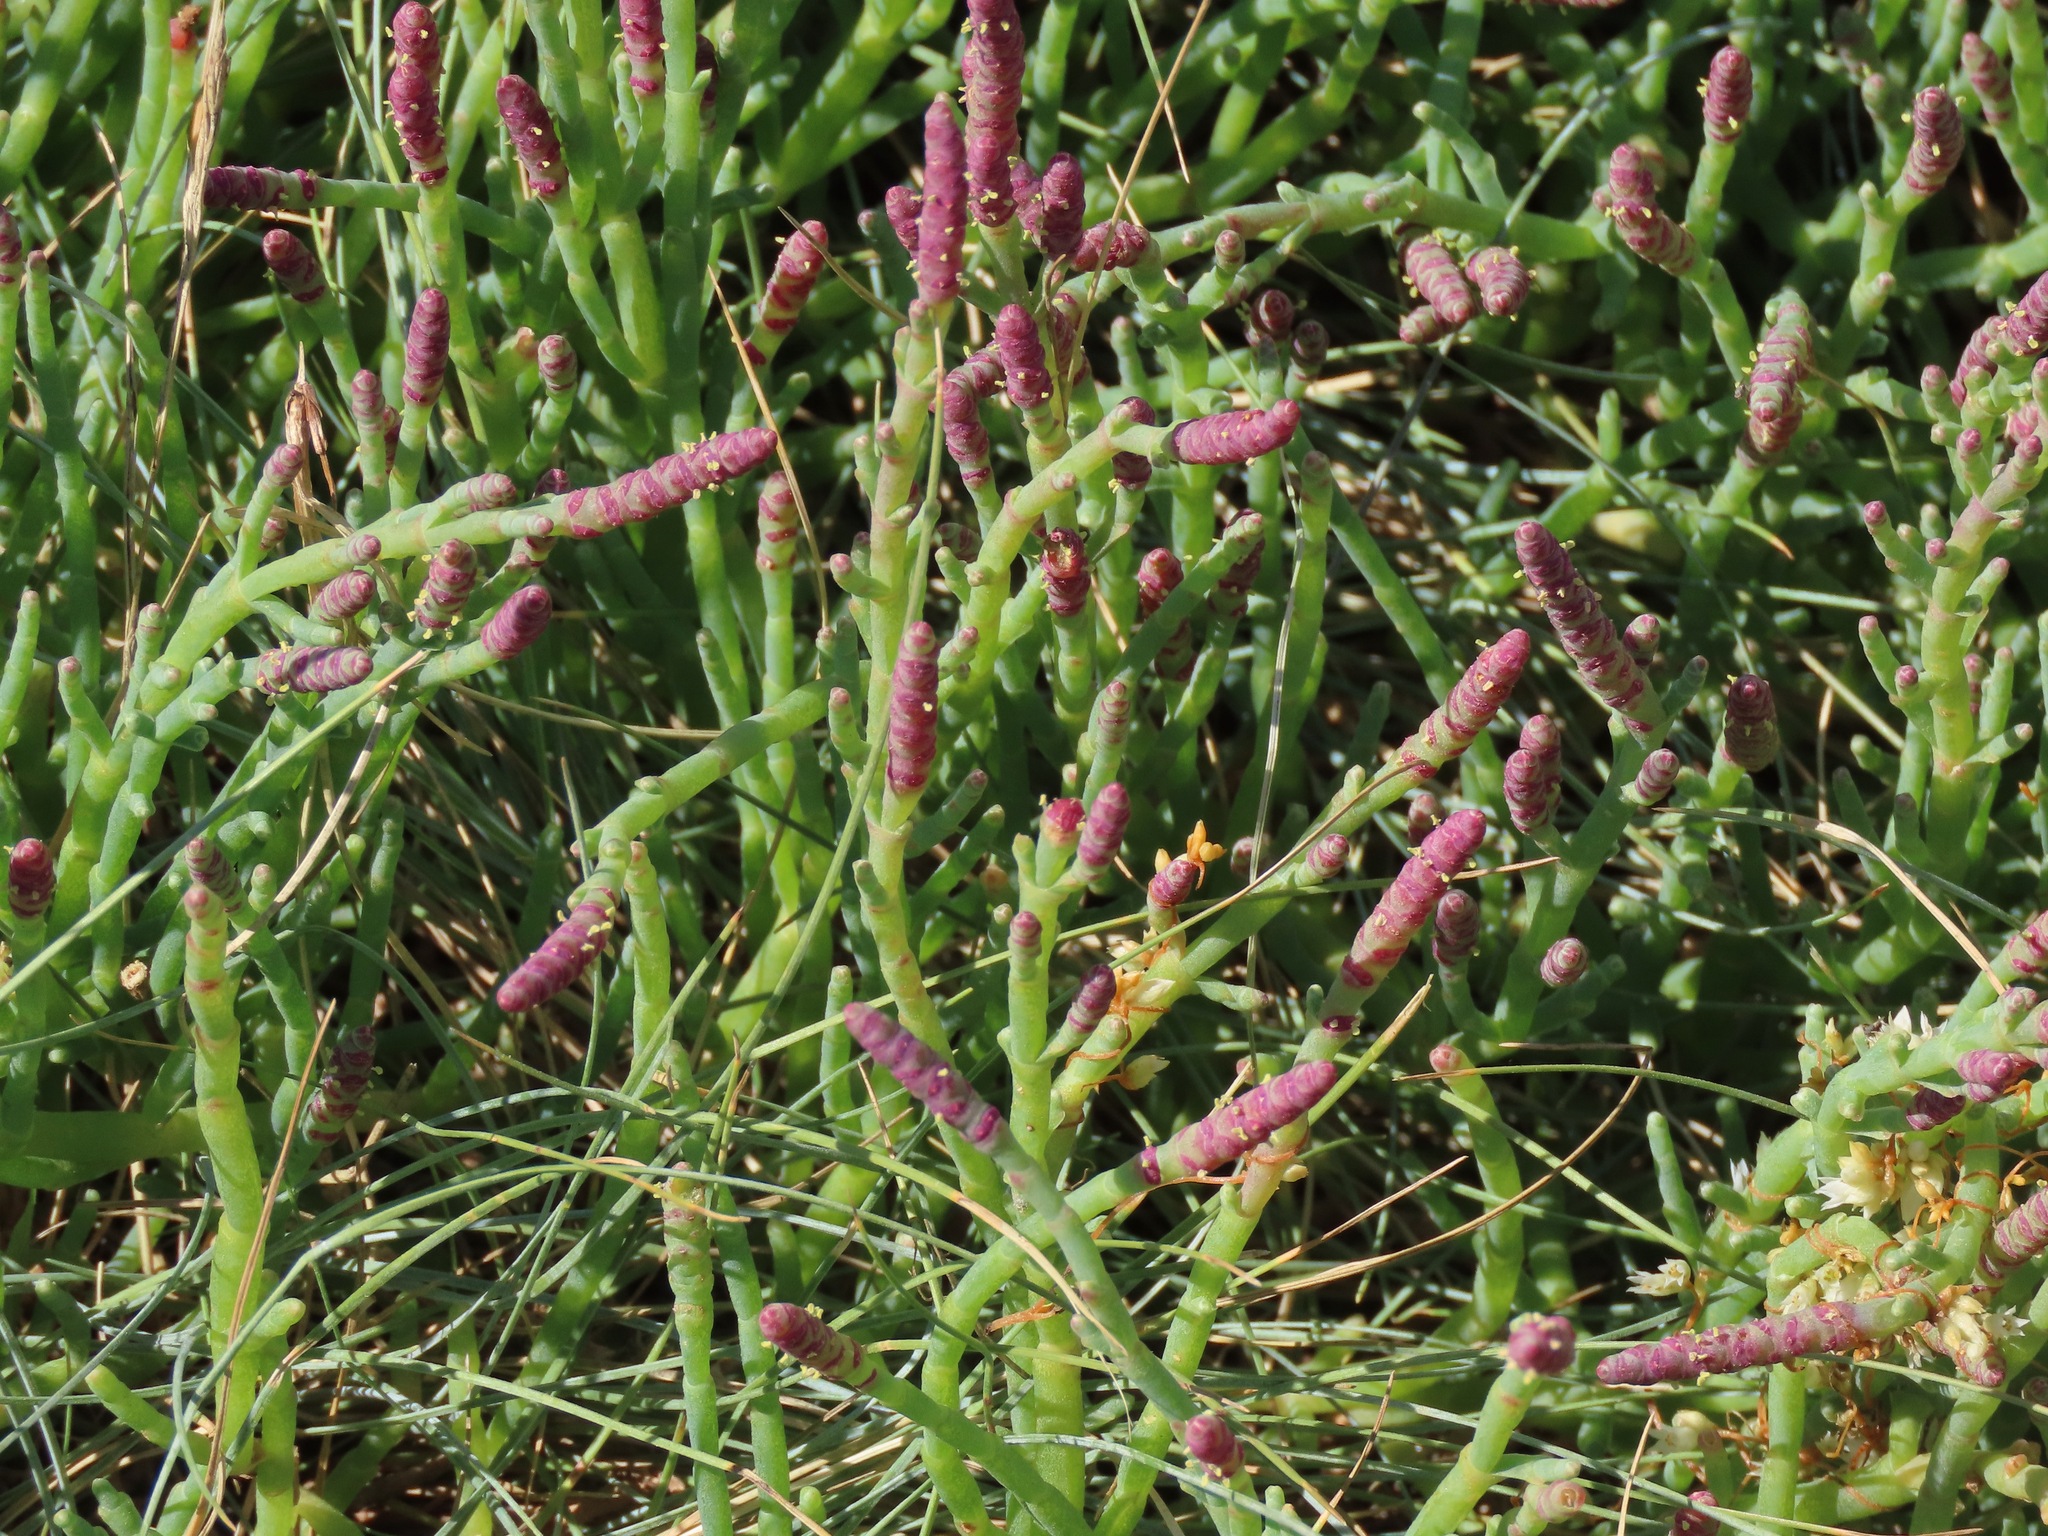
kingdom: Plantae
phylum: Tracheophyta
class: Magnoliopsida
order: Caryophyllales
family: Amaranthaceae
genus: Salicornia
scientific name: Salicornia pacifica
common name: Pacific glasswort
